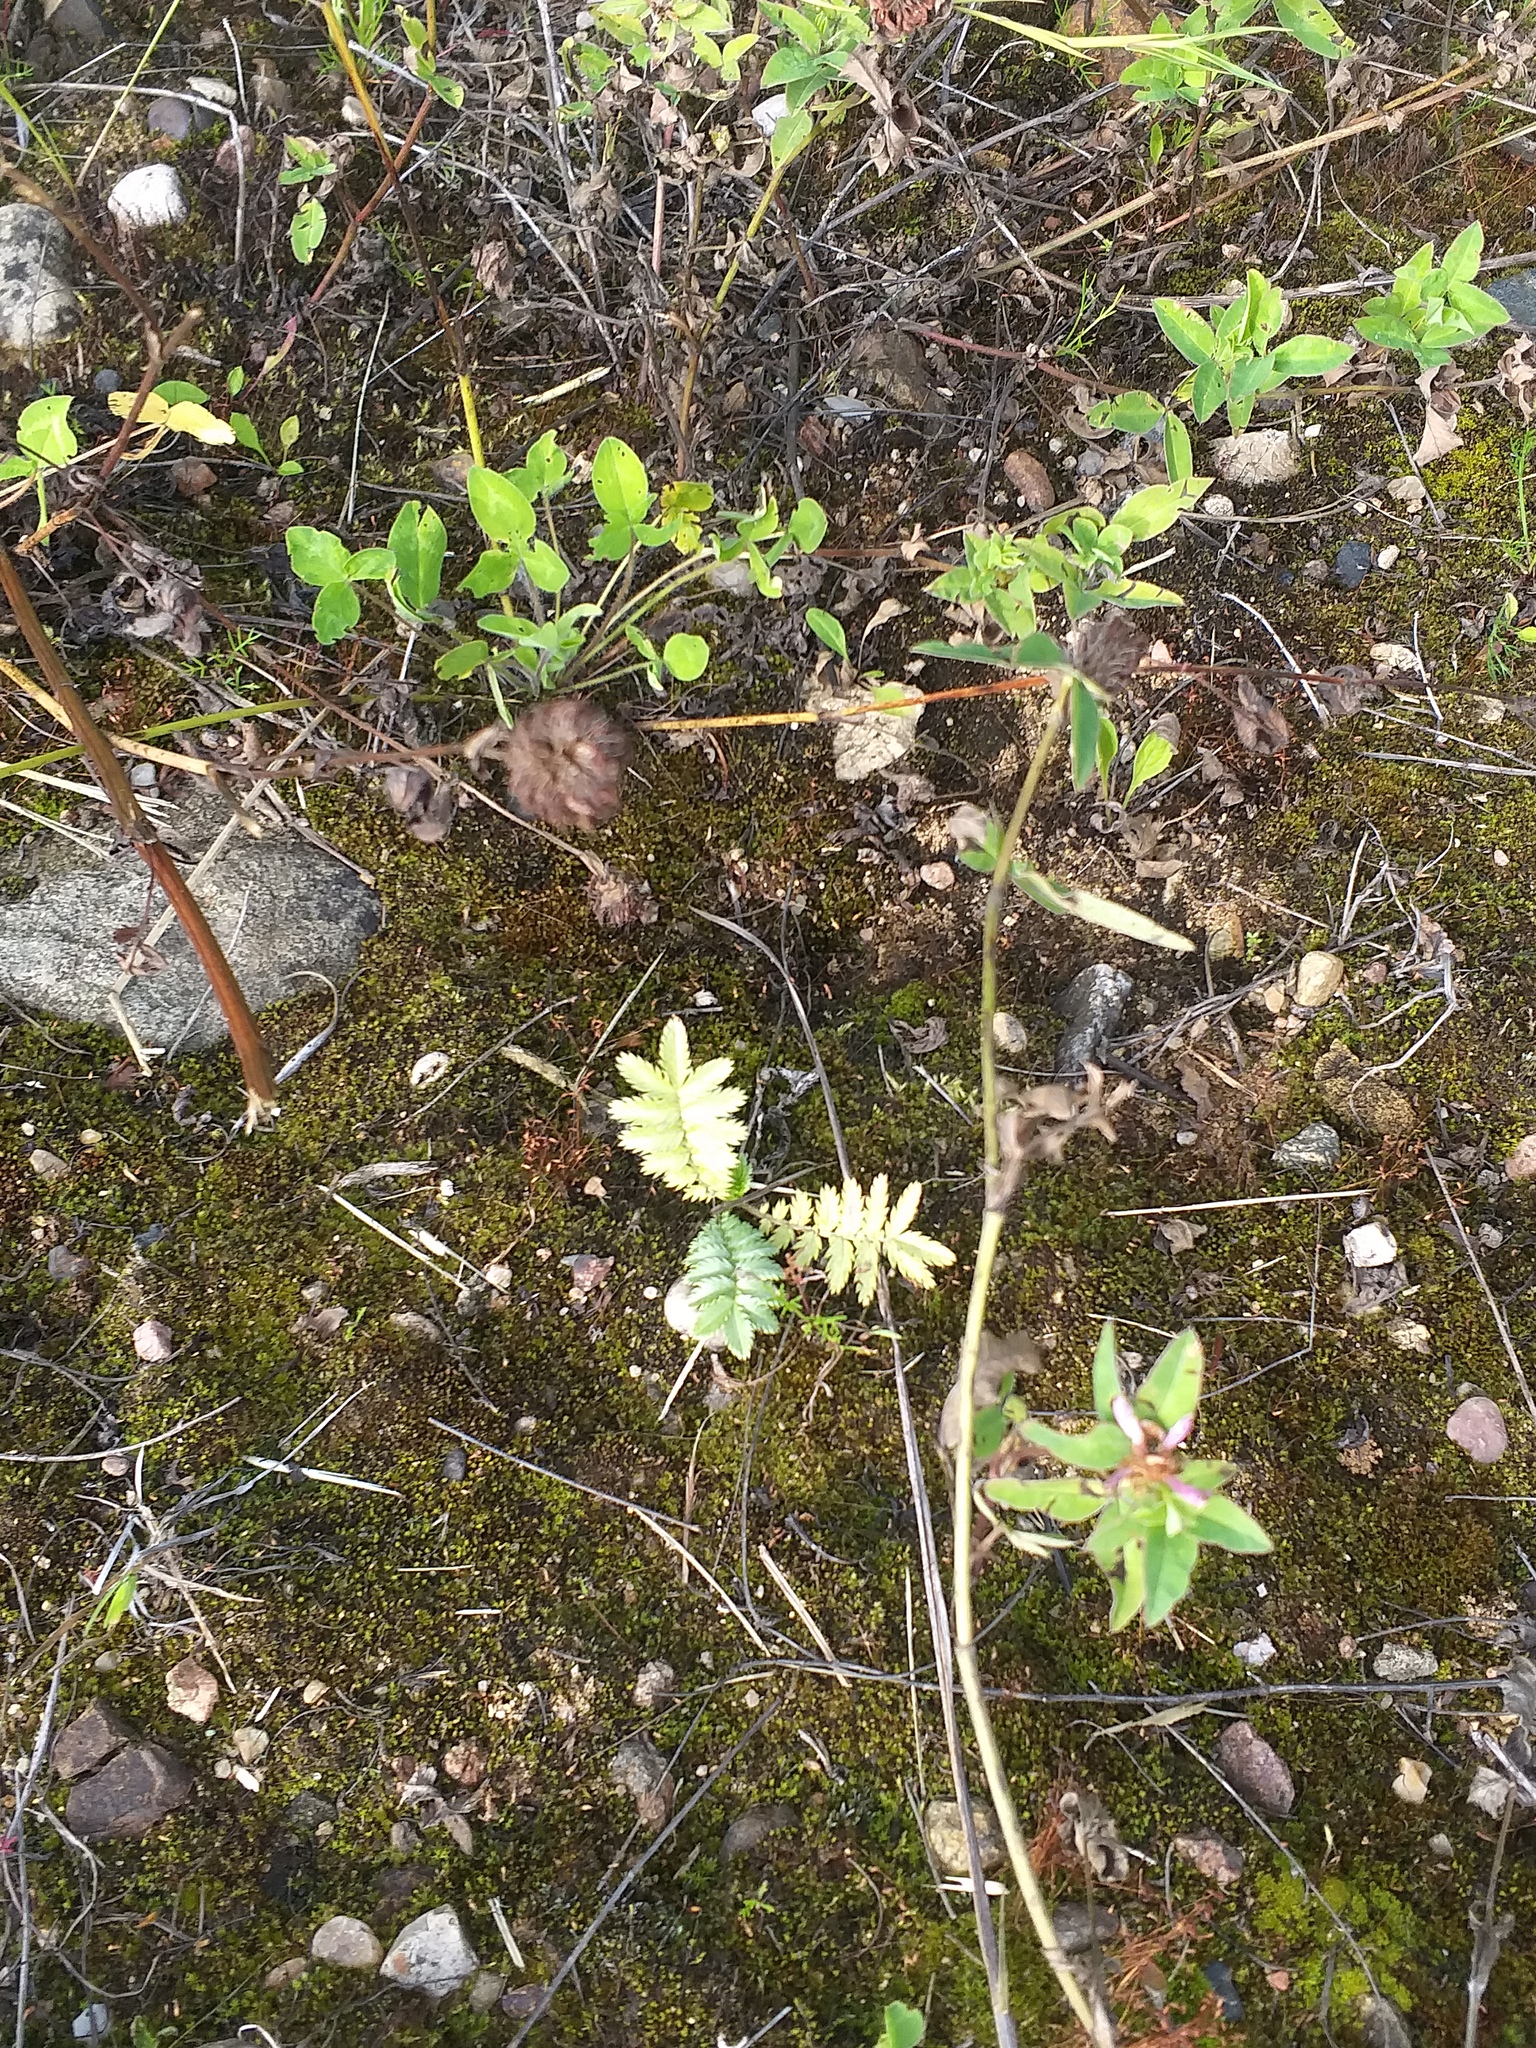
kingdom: Plantae
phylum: Tracheophyta
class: Magnoliopsida
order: Rosales
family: Rosaceae
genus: Argentina
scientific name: Argentina anserina
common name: Common silverweed
